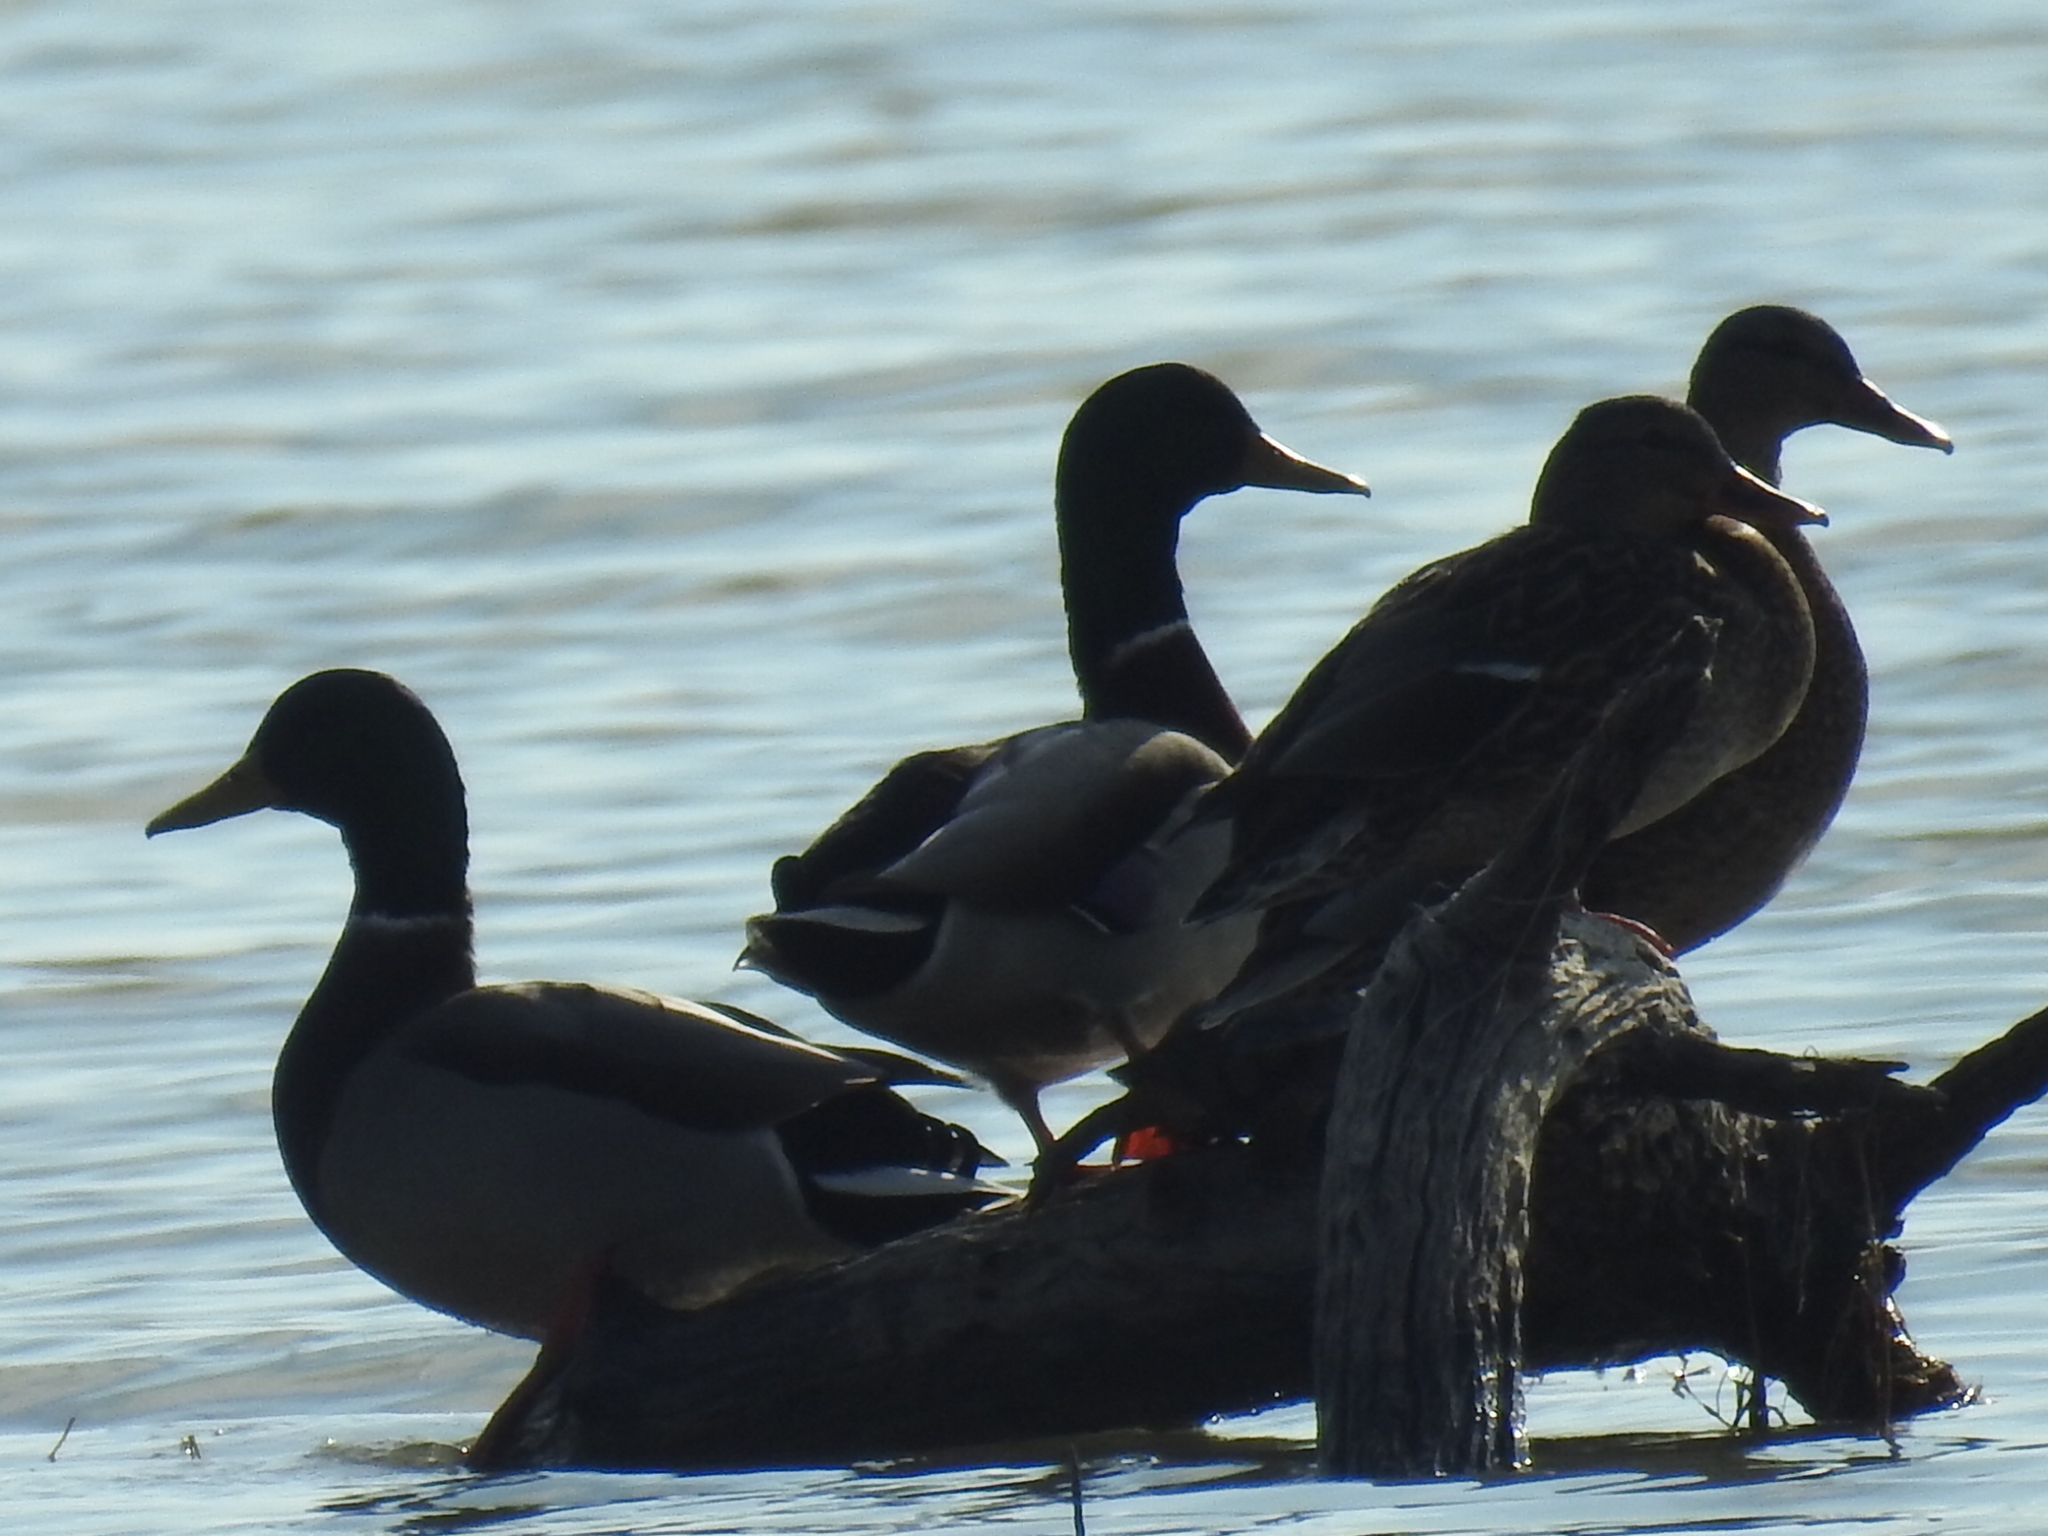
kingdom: Animalia
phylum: Chordata
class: Aves
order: Anseriformes
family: Anatidae
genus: Anas
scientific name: Anas platyrhynchos
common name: Mallard
